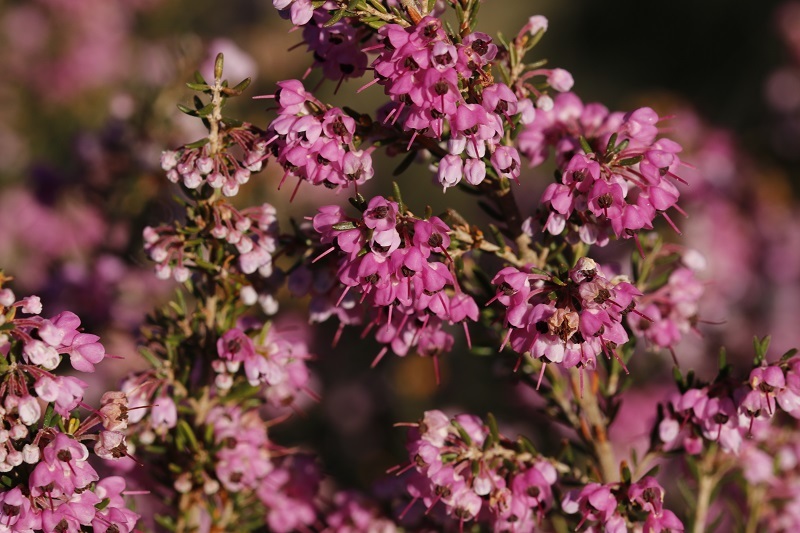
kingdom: Plantae
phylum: Tracheophyta
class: Magnoliopsida
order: Ericales
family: Ericaceae
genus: Erica
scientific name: Erica sparsa
